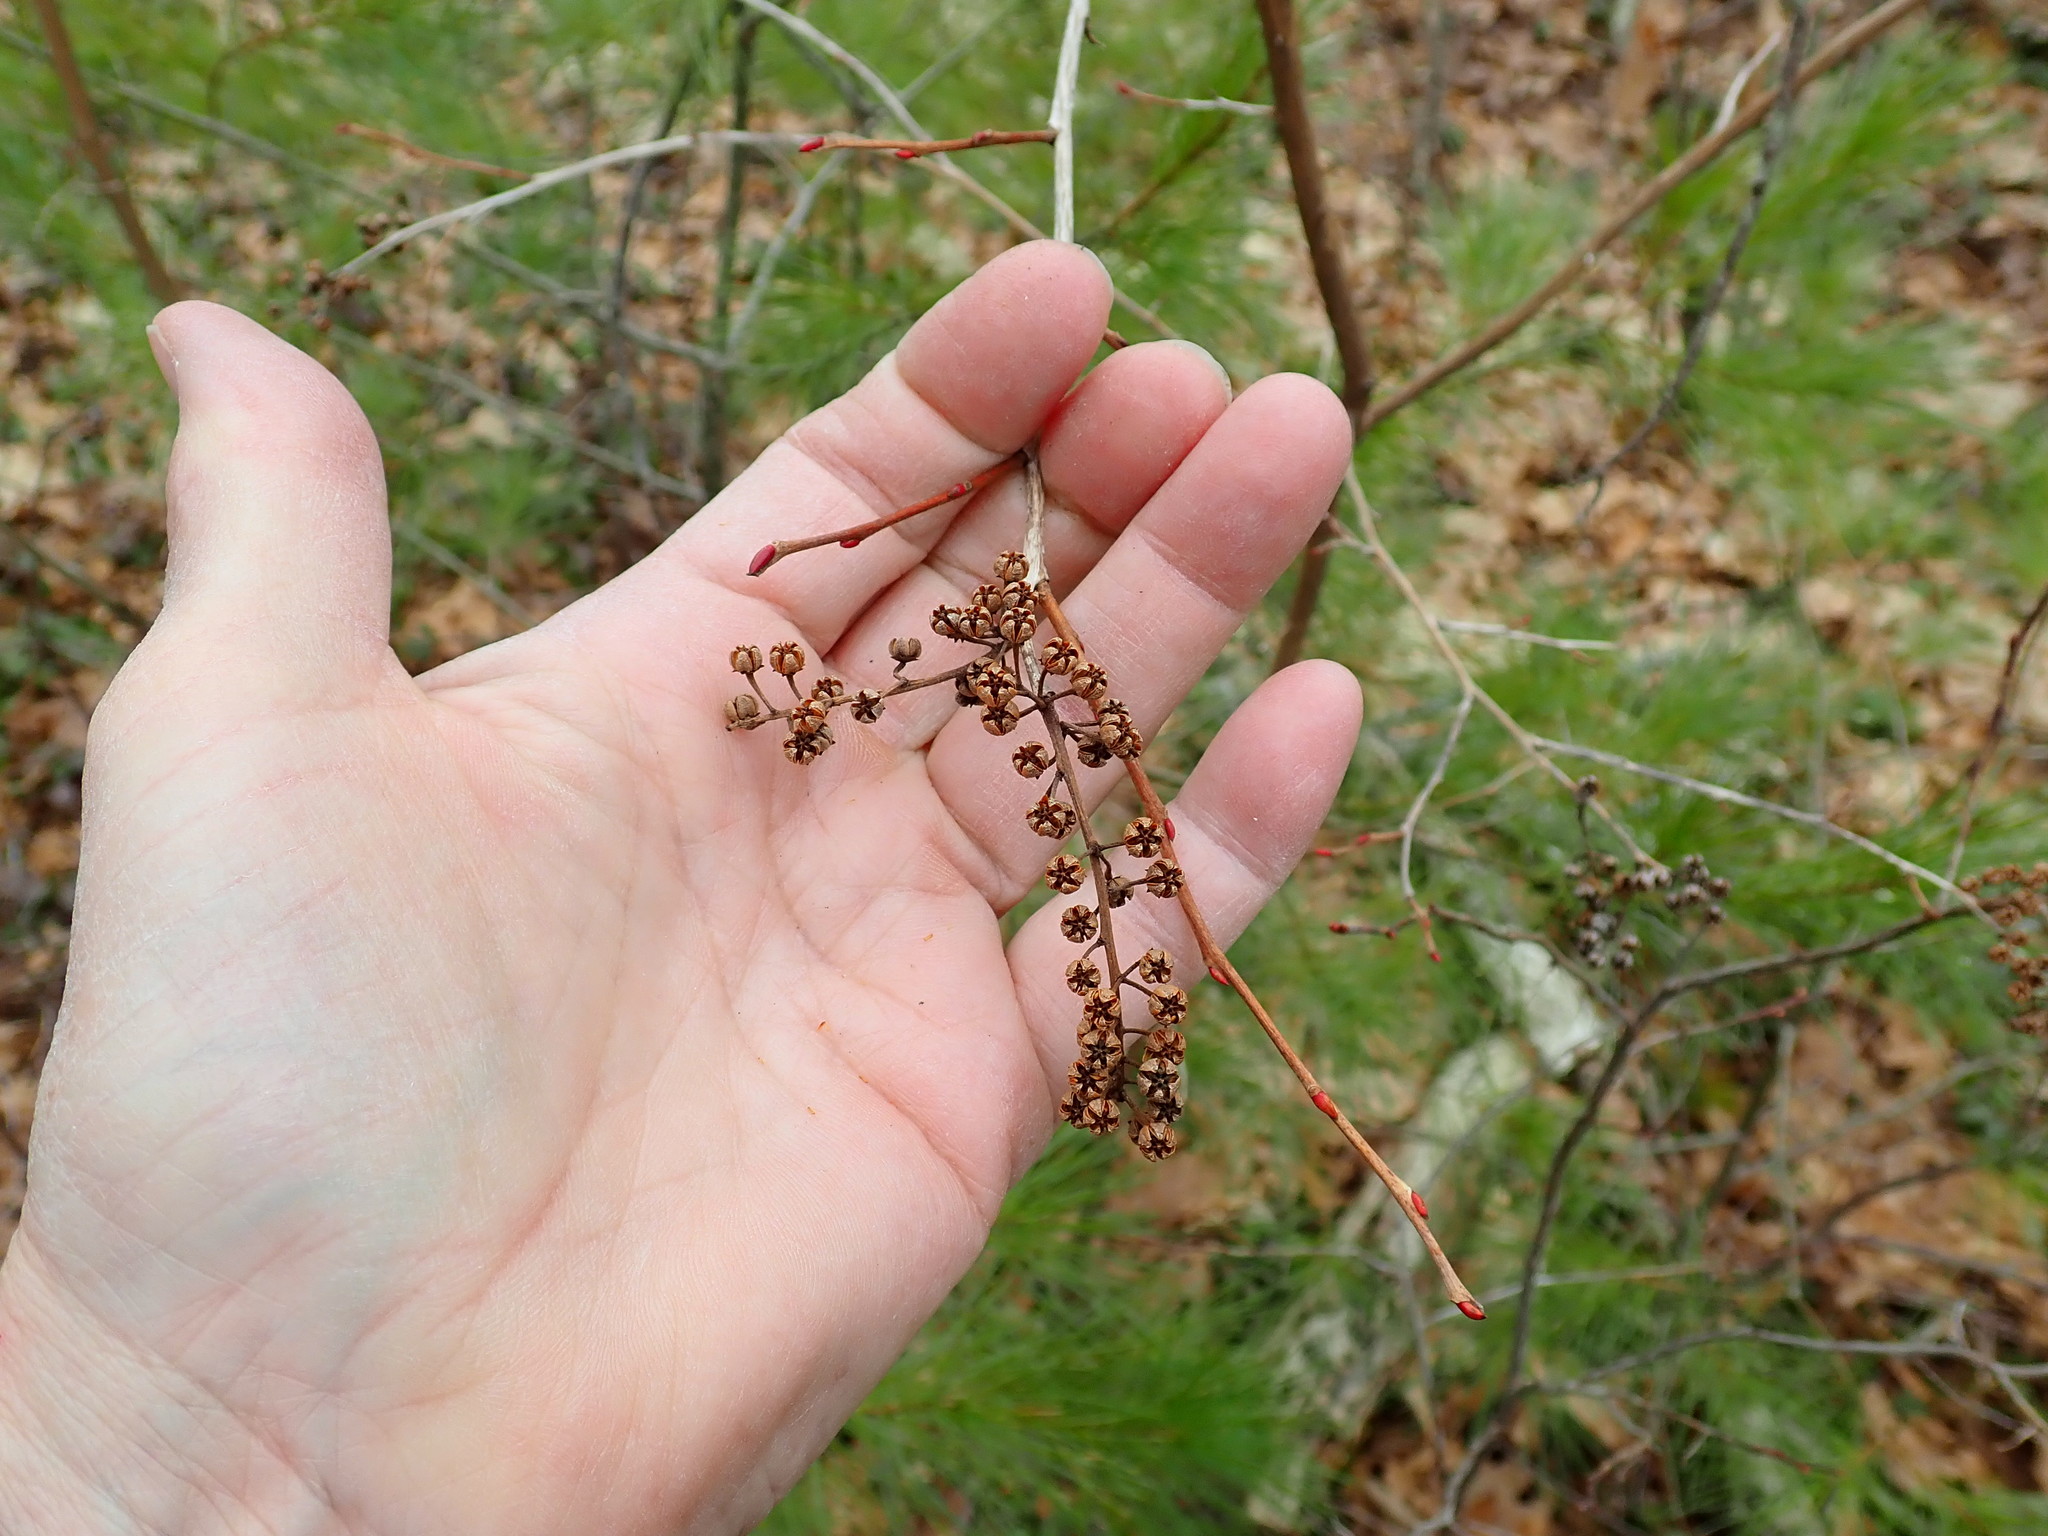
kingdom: Plantae
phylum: Tracheophyta
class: Magnoliopsida
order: Ericales
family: Ericaceae
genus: Lyonia
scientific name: Lyonia ligustrina
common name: Maleberry
